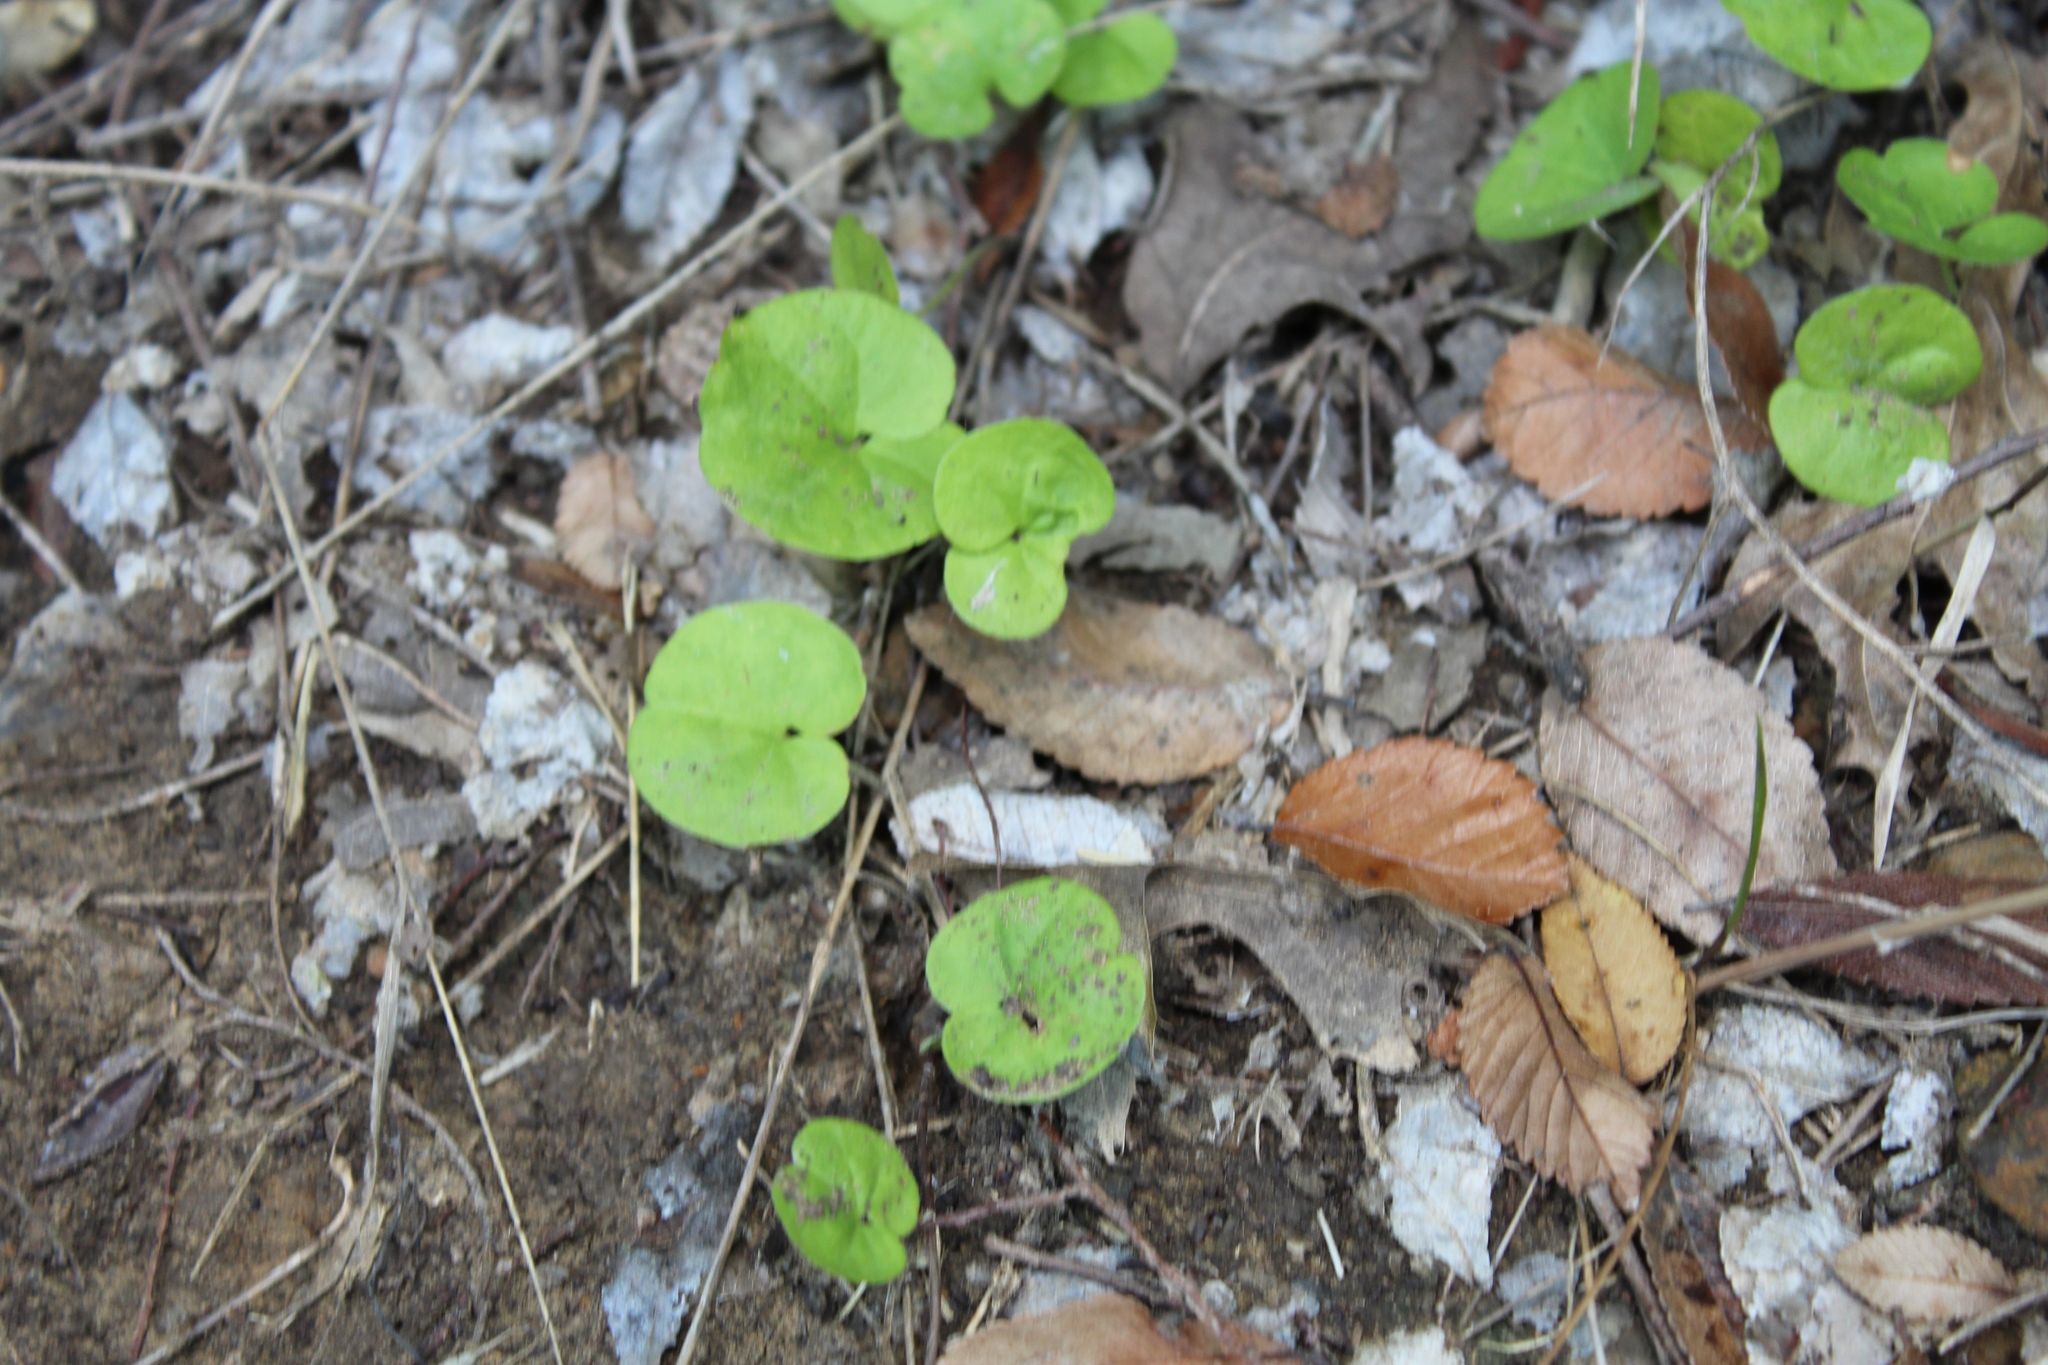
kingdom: Plantae
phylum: Tracheophyta
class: Magnoliopsida
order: Solanales
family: Convolvulaceae
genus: Dichondra
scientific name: Dichondra carolinensis
